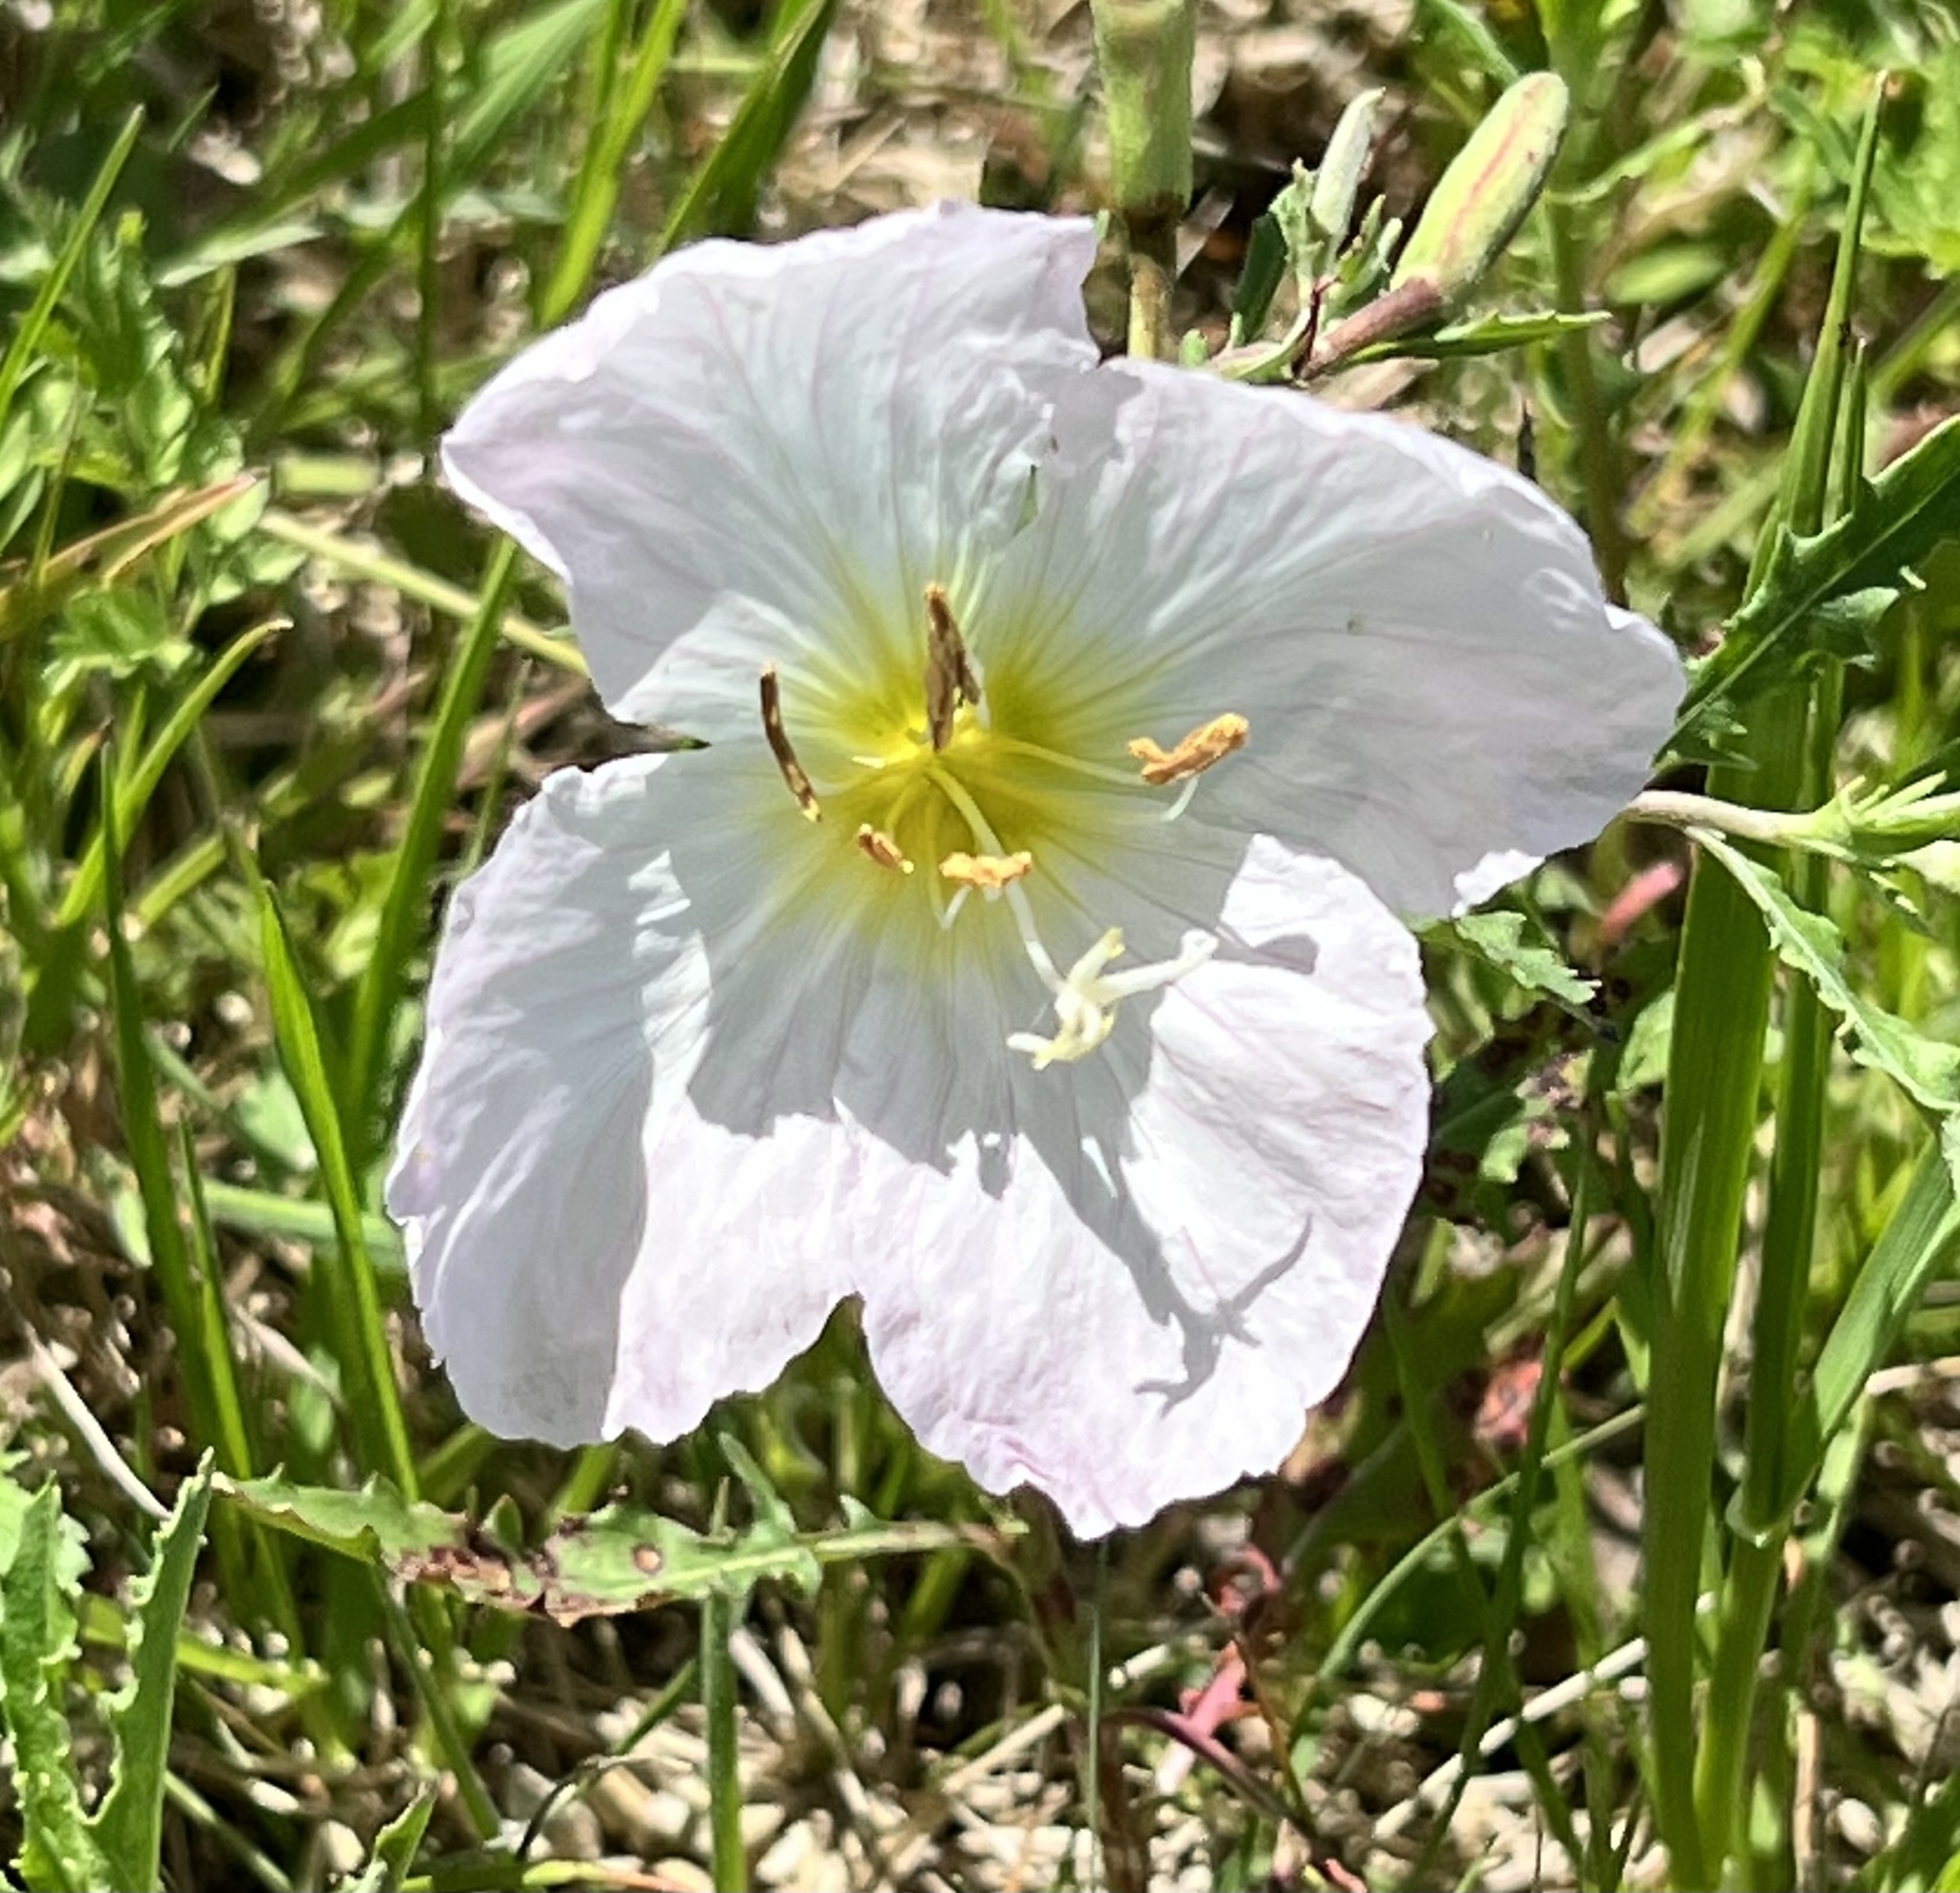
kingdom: Plantae
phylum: Tracheophyta
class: Magnoliopsida
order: Myrtales
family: Onagraceae
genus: Oenothera
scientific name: Oenothera speciosa
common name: White evening-primrose
